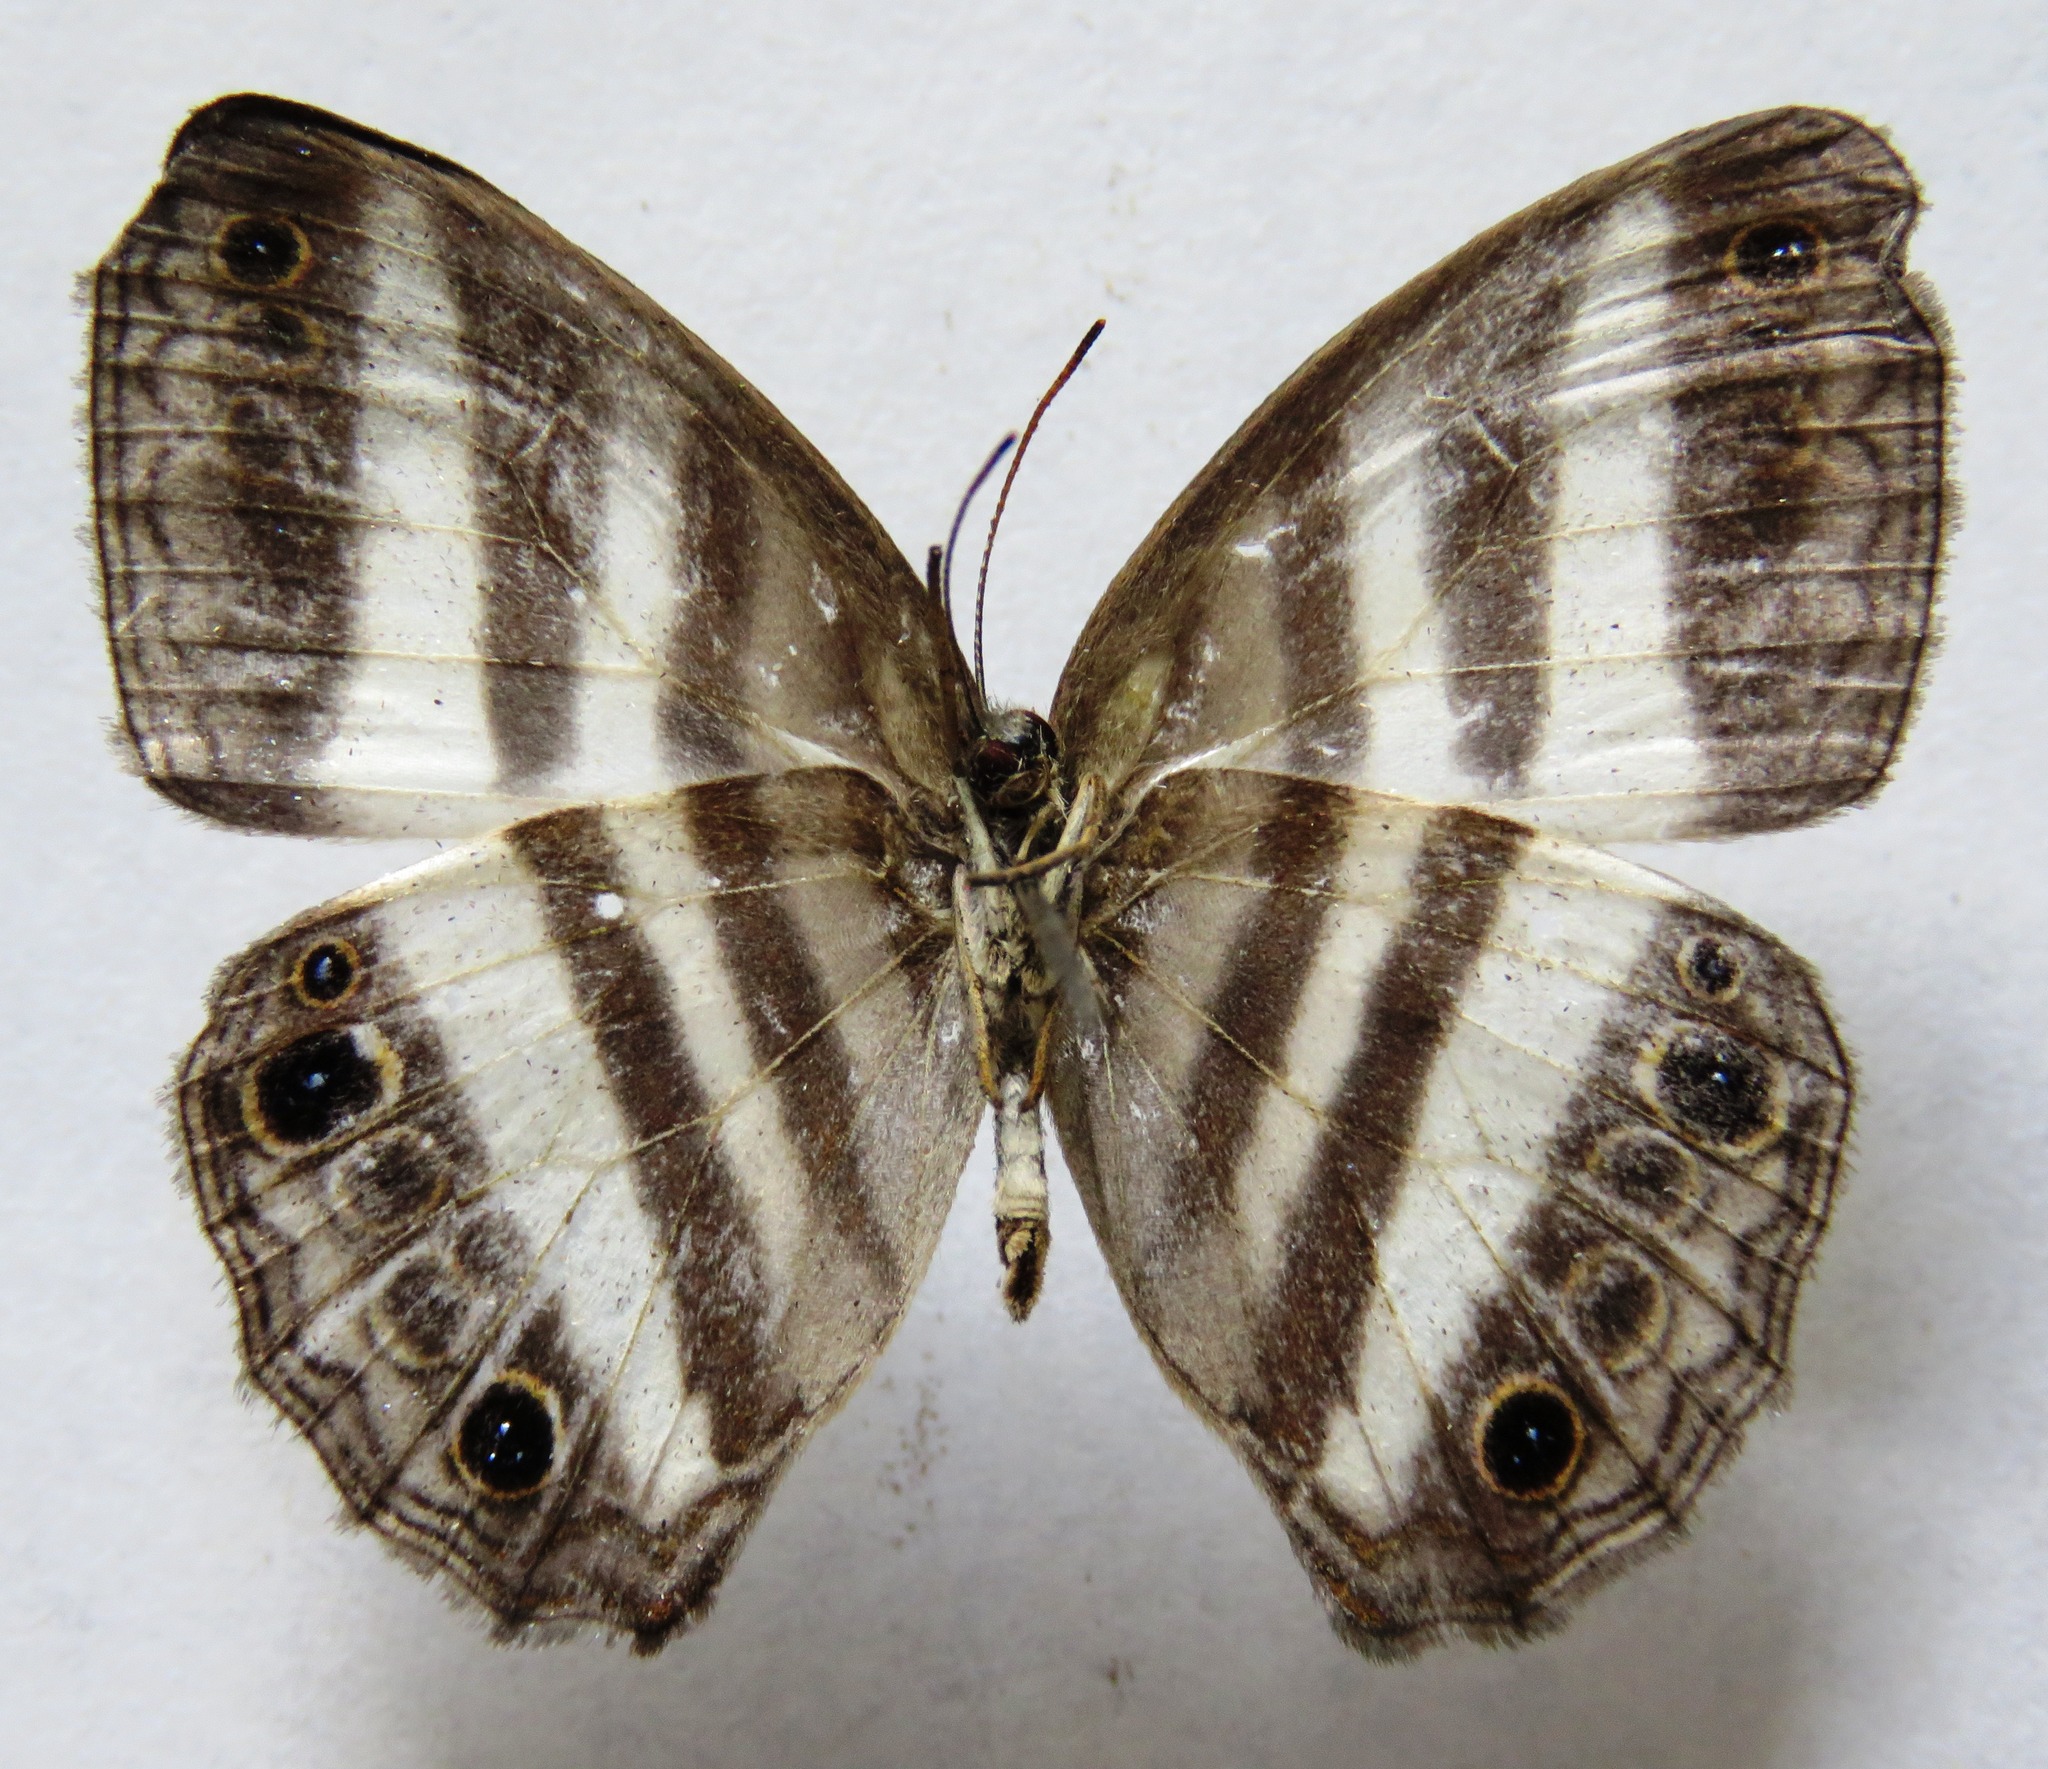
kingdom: Animalia
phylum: Arthropoda
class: Insecta
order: Lepidoptera
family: Nymphalidae
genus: Pareuptychia
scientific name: Pareuptychia hesione
